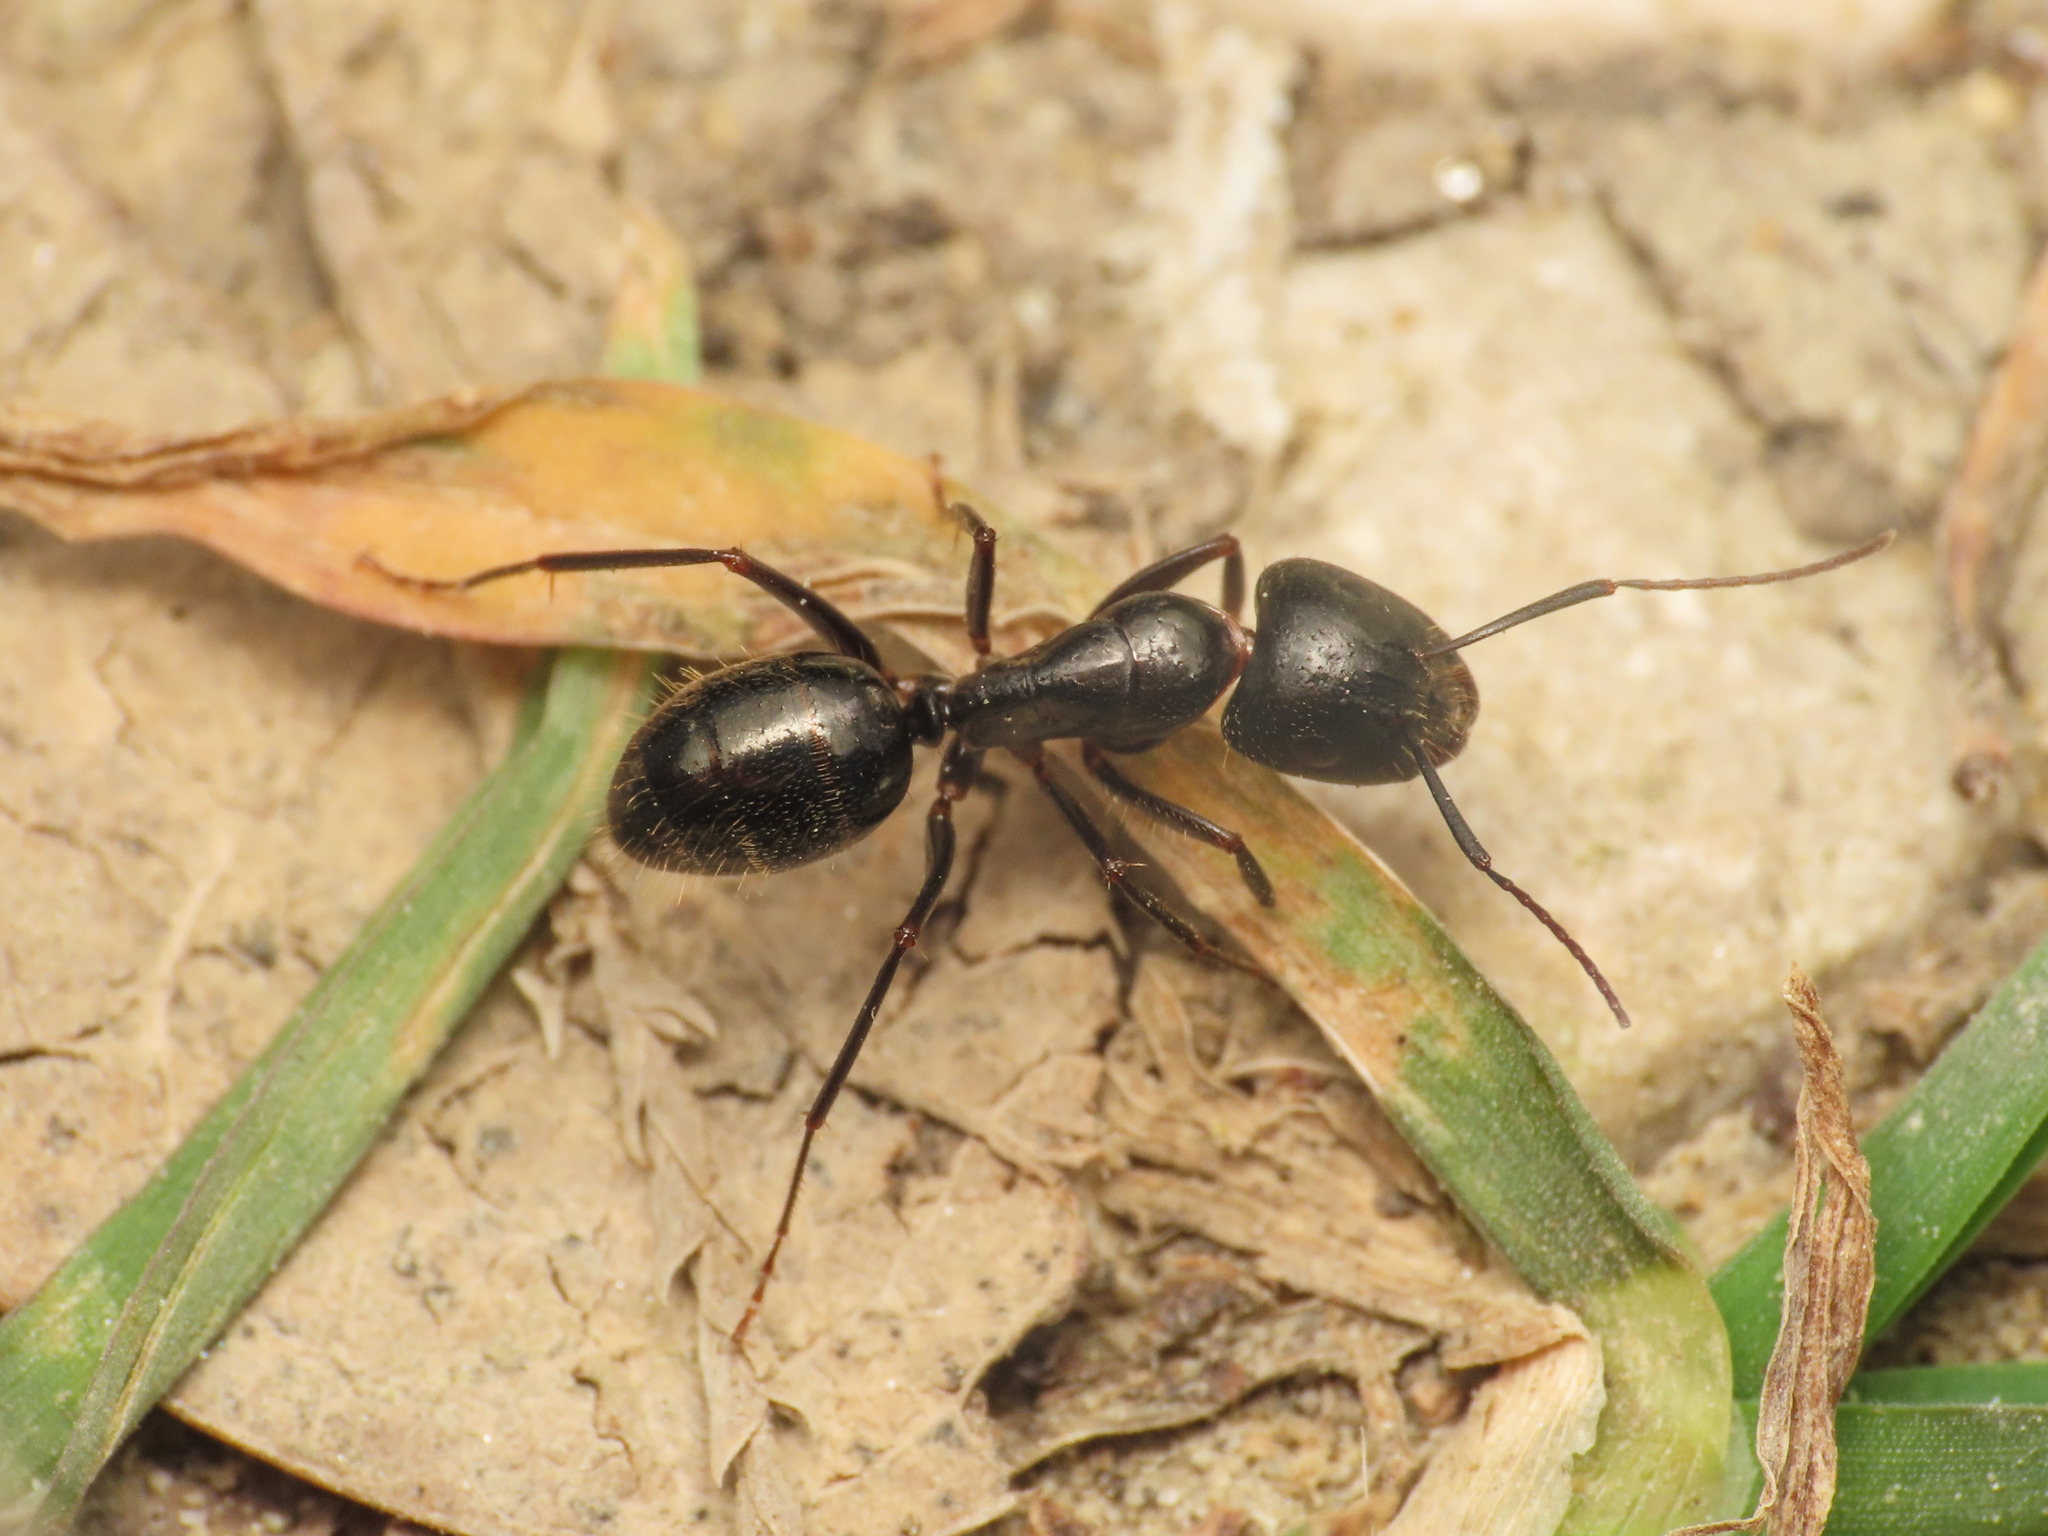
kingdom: Animalia
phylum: Arthropoda
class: Insecta
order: Hymenoptera
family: Formicidae
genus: Camponotus
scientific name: Camponotus aethiops
